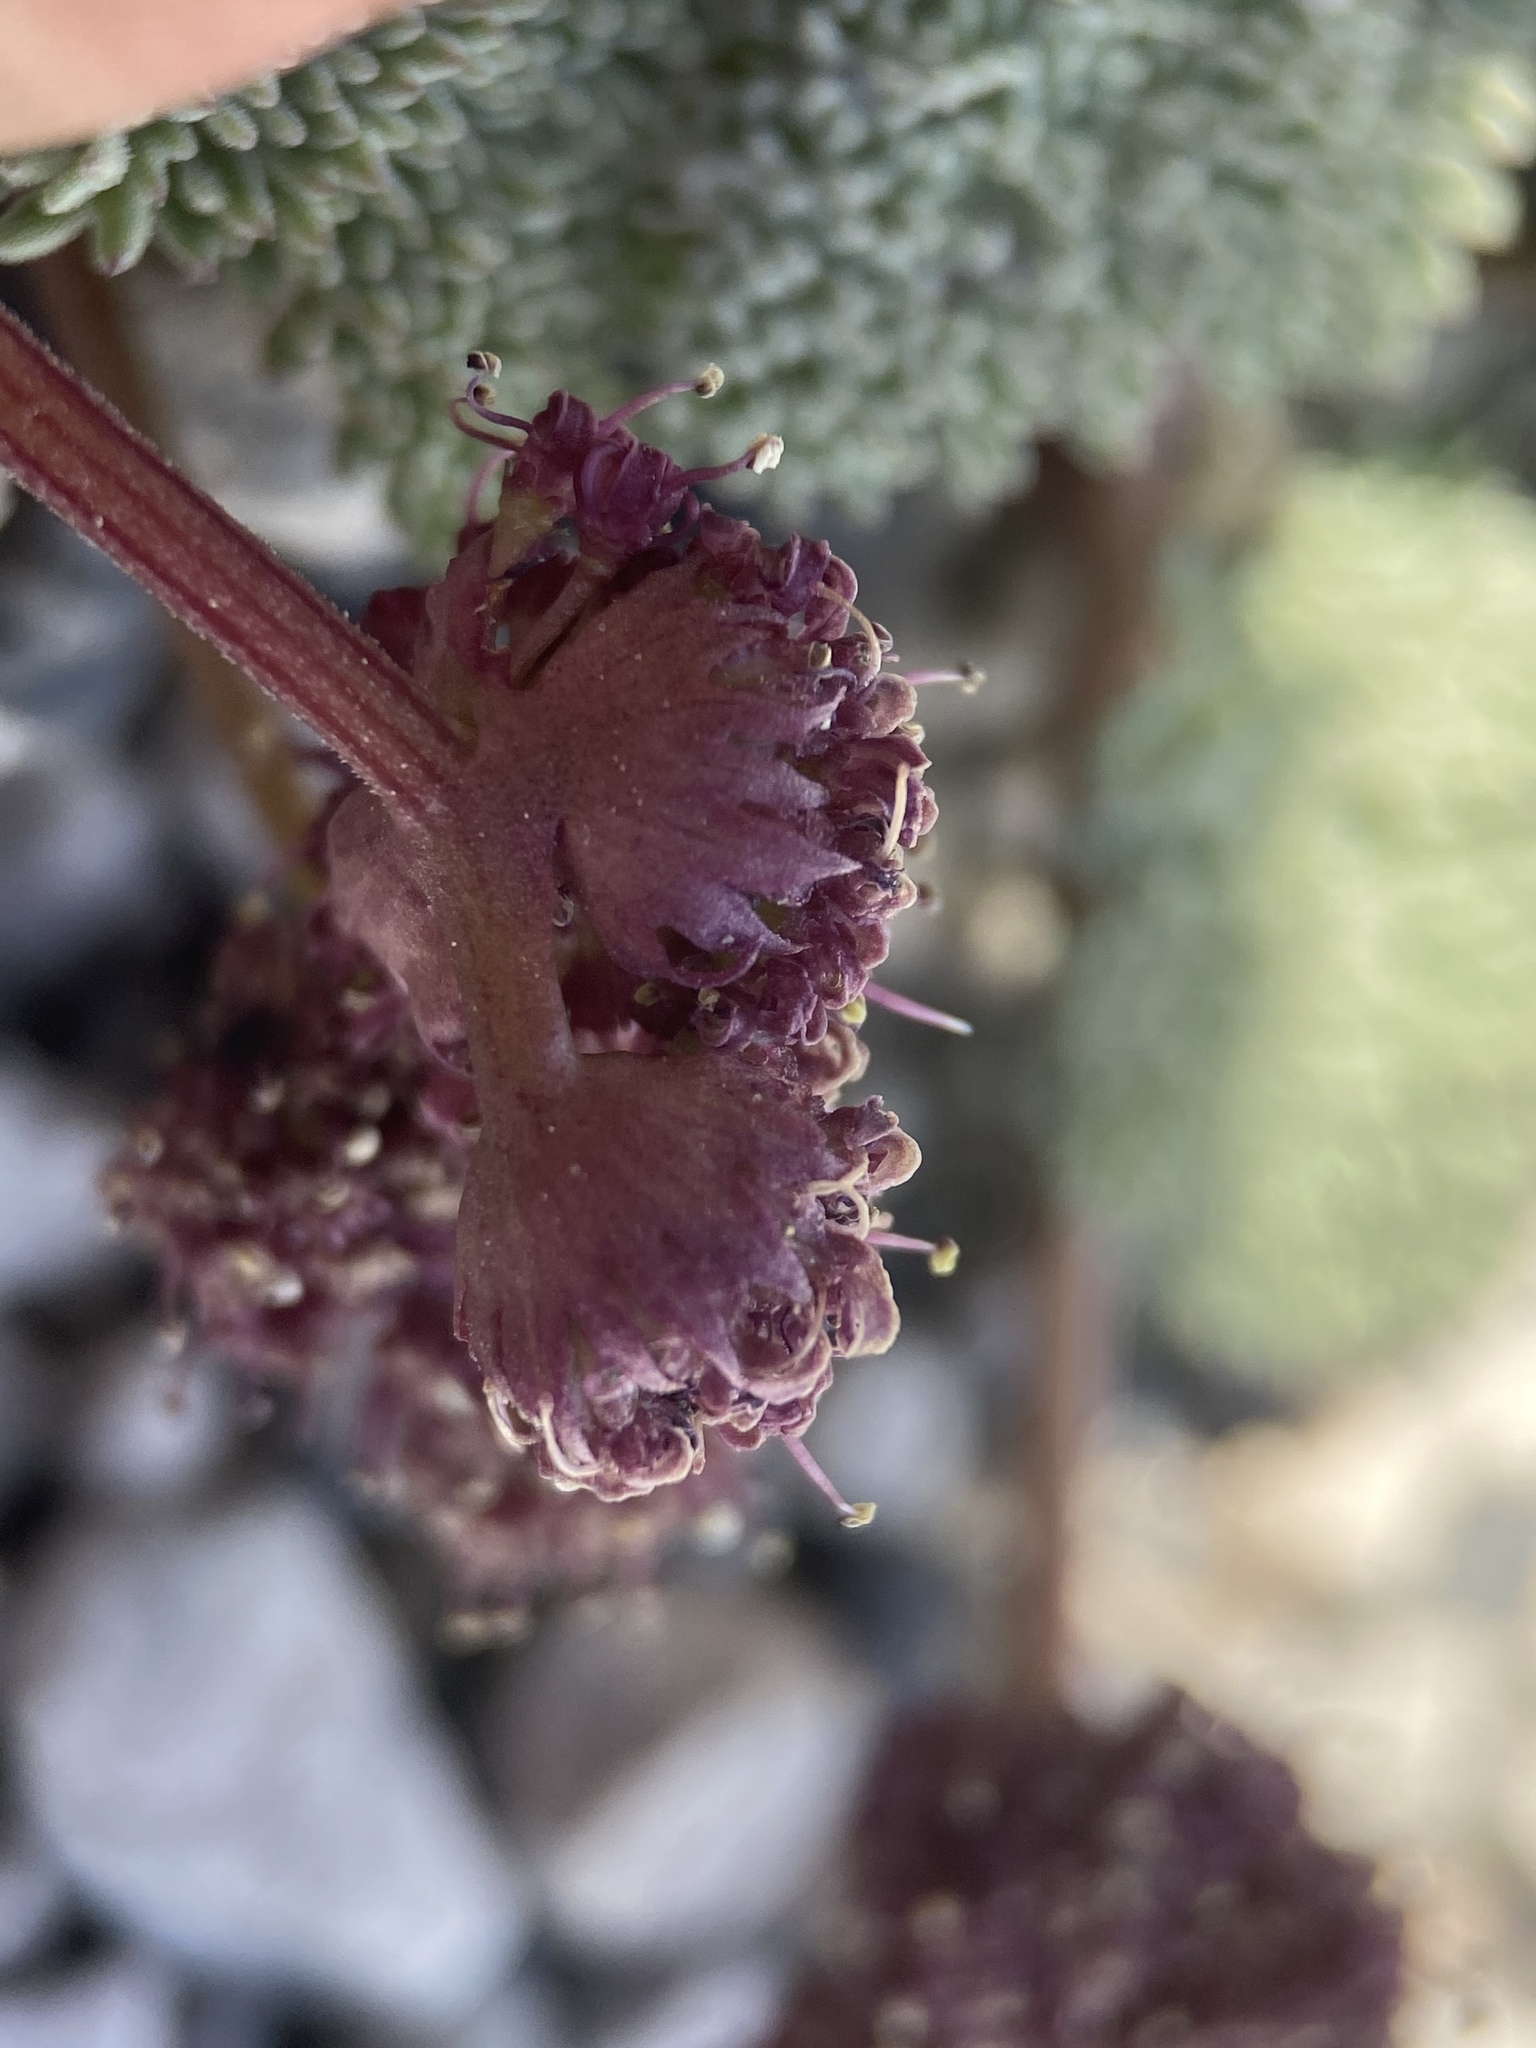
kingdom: Plantae
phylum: Tracheophyta
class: Magnoliopsida
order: Apiales
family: Apiaceae
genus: Aulospermum
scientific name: Aulospermum cinerarium
